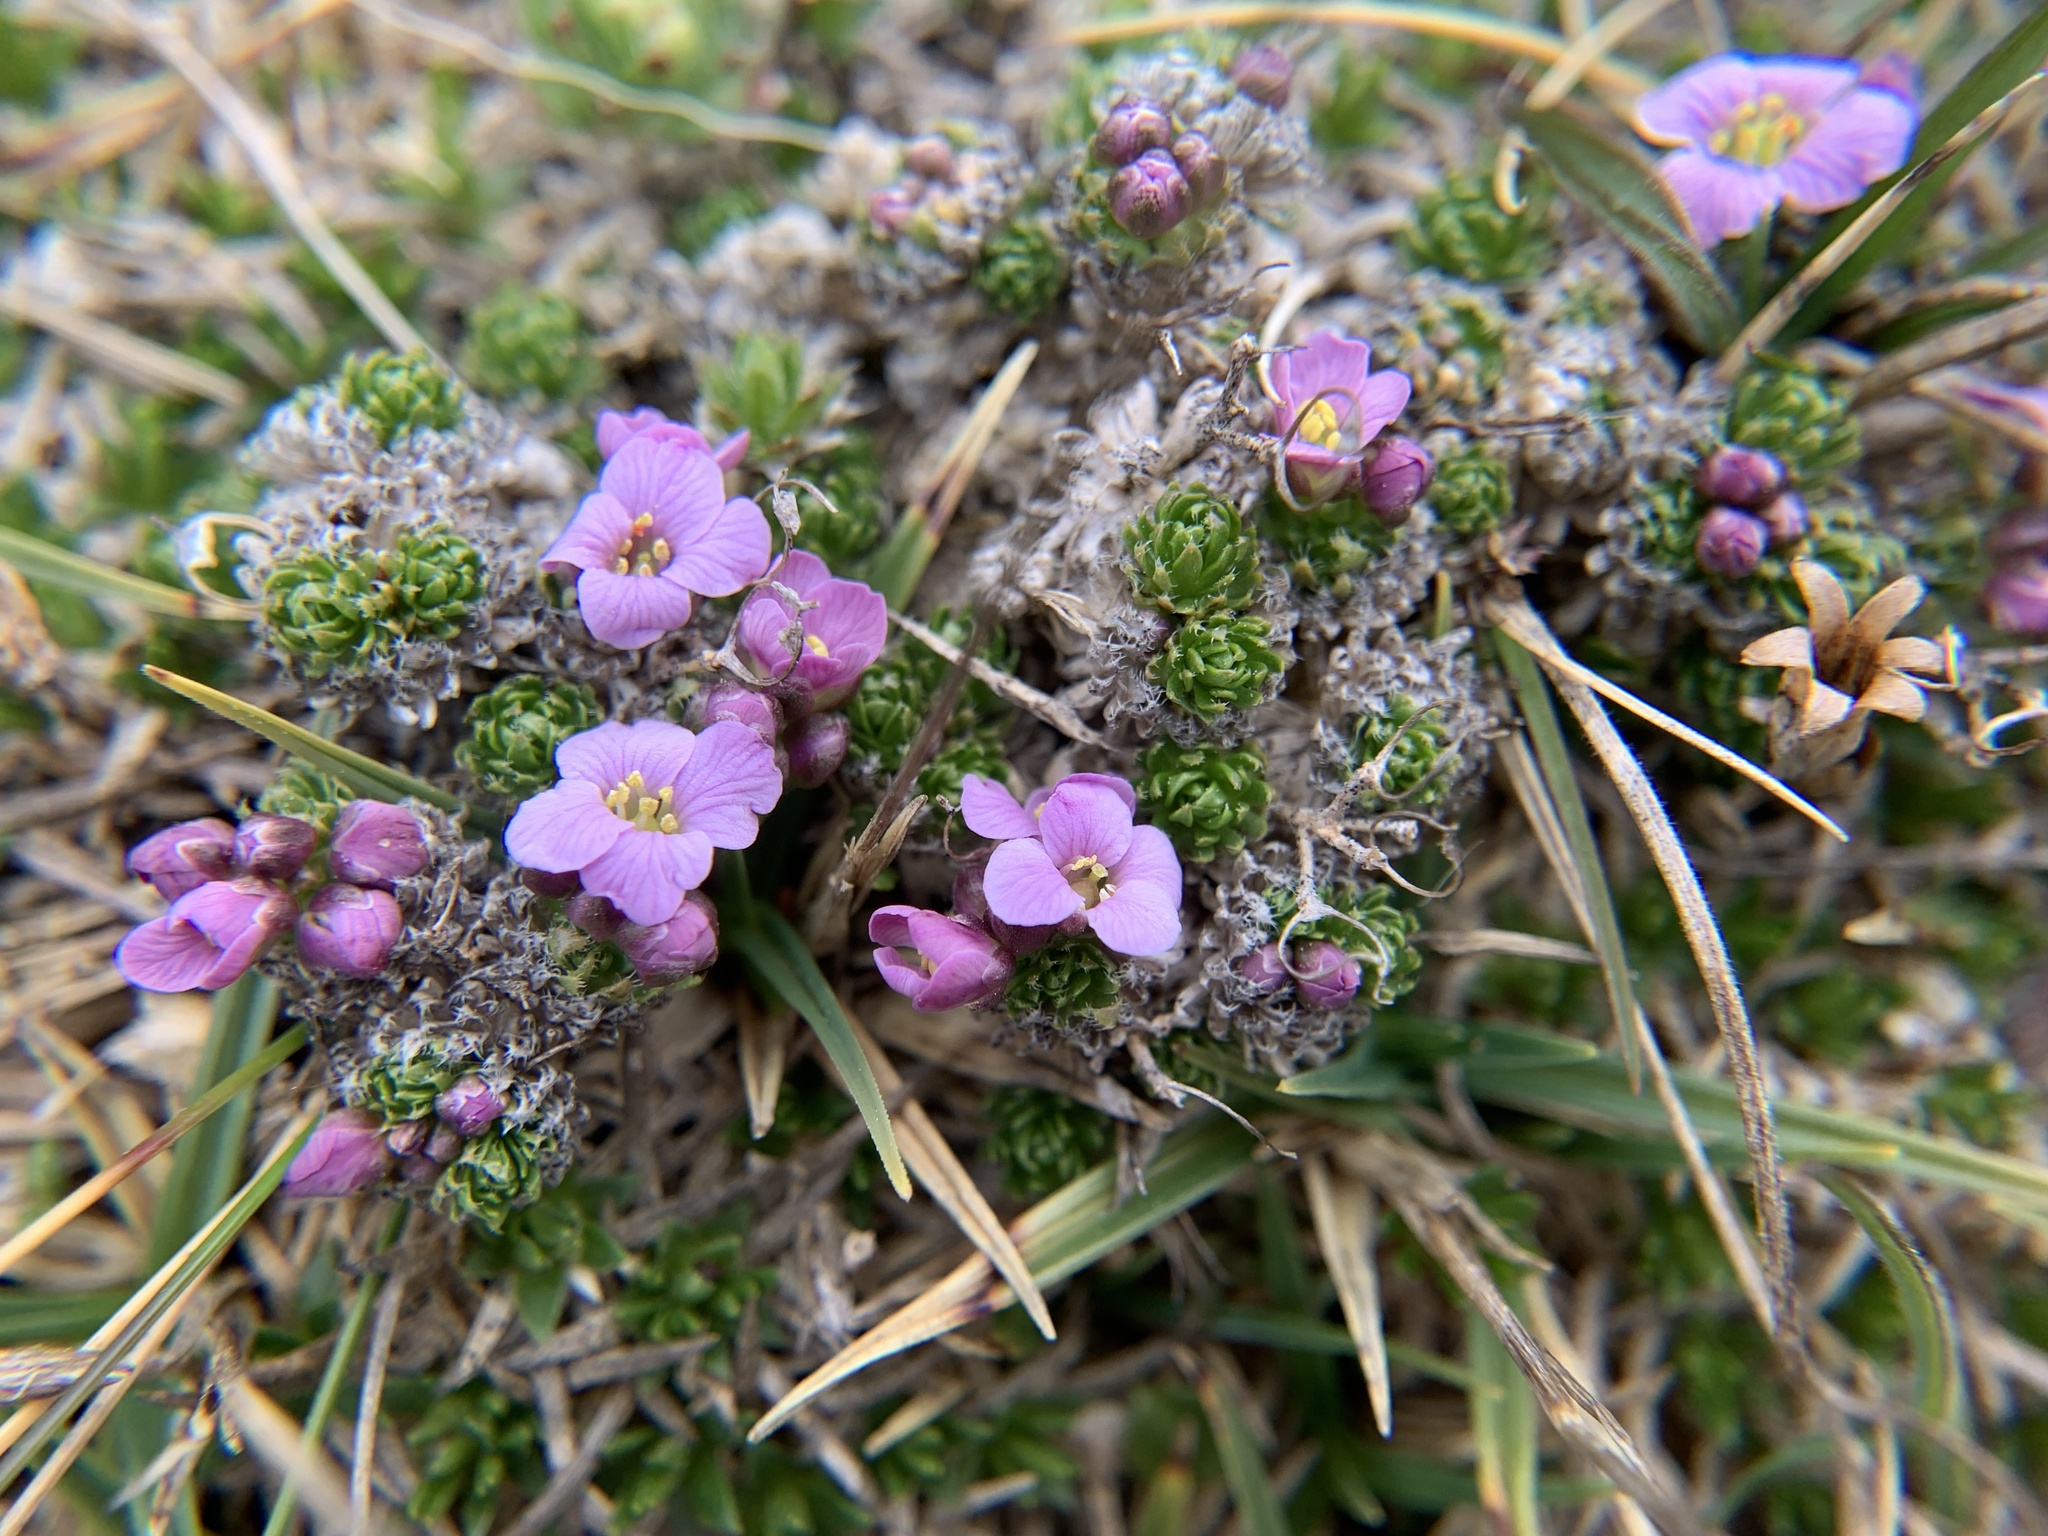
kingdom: Plantae
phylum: Tracheophyta
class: Magnoliopsida
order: Brassicales
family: Brassicaceae
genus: Petrocallis
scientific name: Petrocallis pyrenaica
